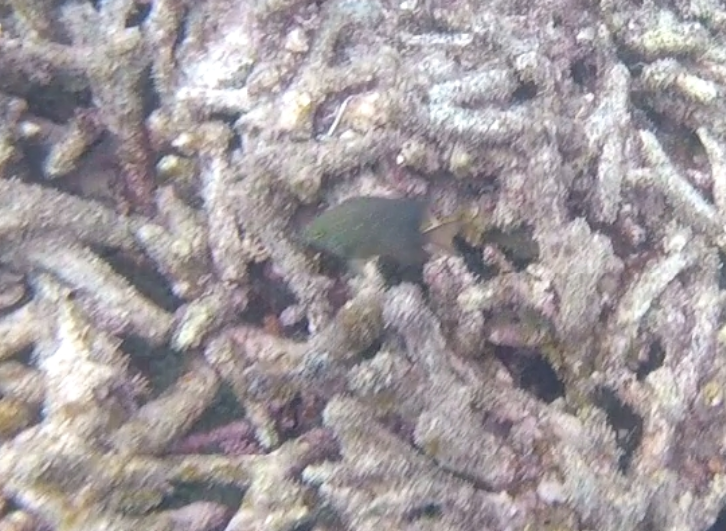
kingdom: Animalia
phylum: Chordata
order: Perciformes
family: Pomacentridae
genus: Plectroglyphidodon
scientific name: Plectroglyphidodon lacrymatus
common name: Jewel damsel
